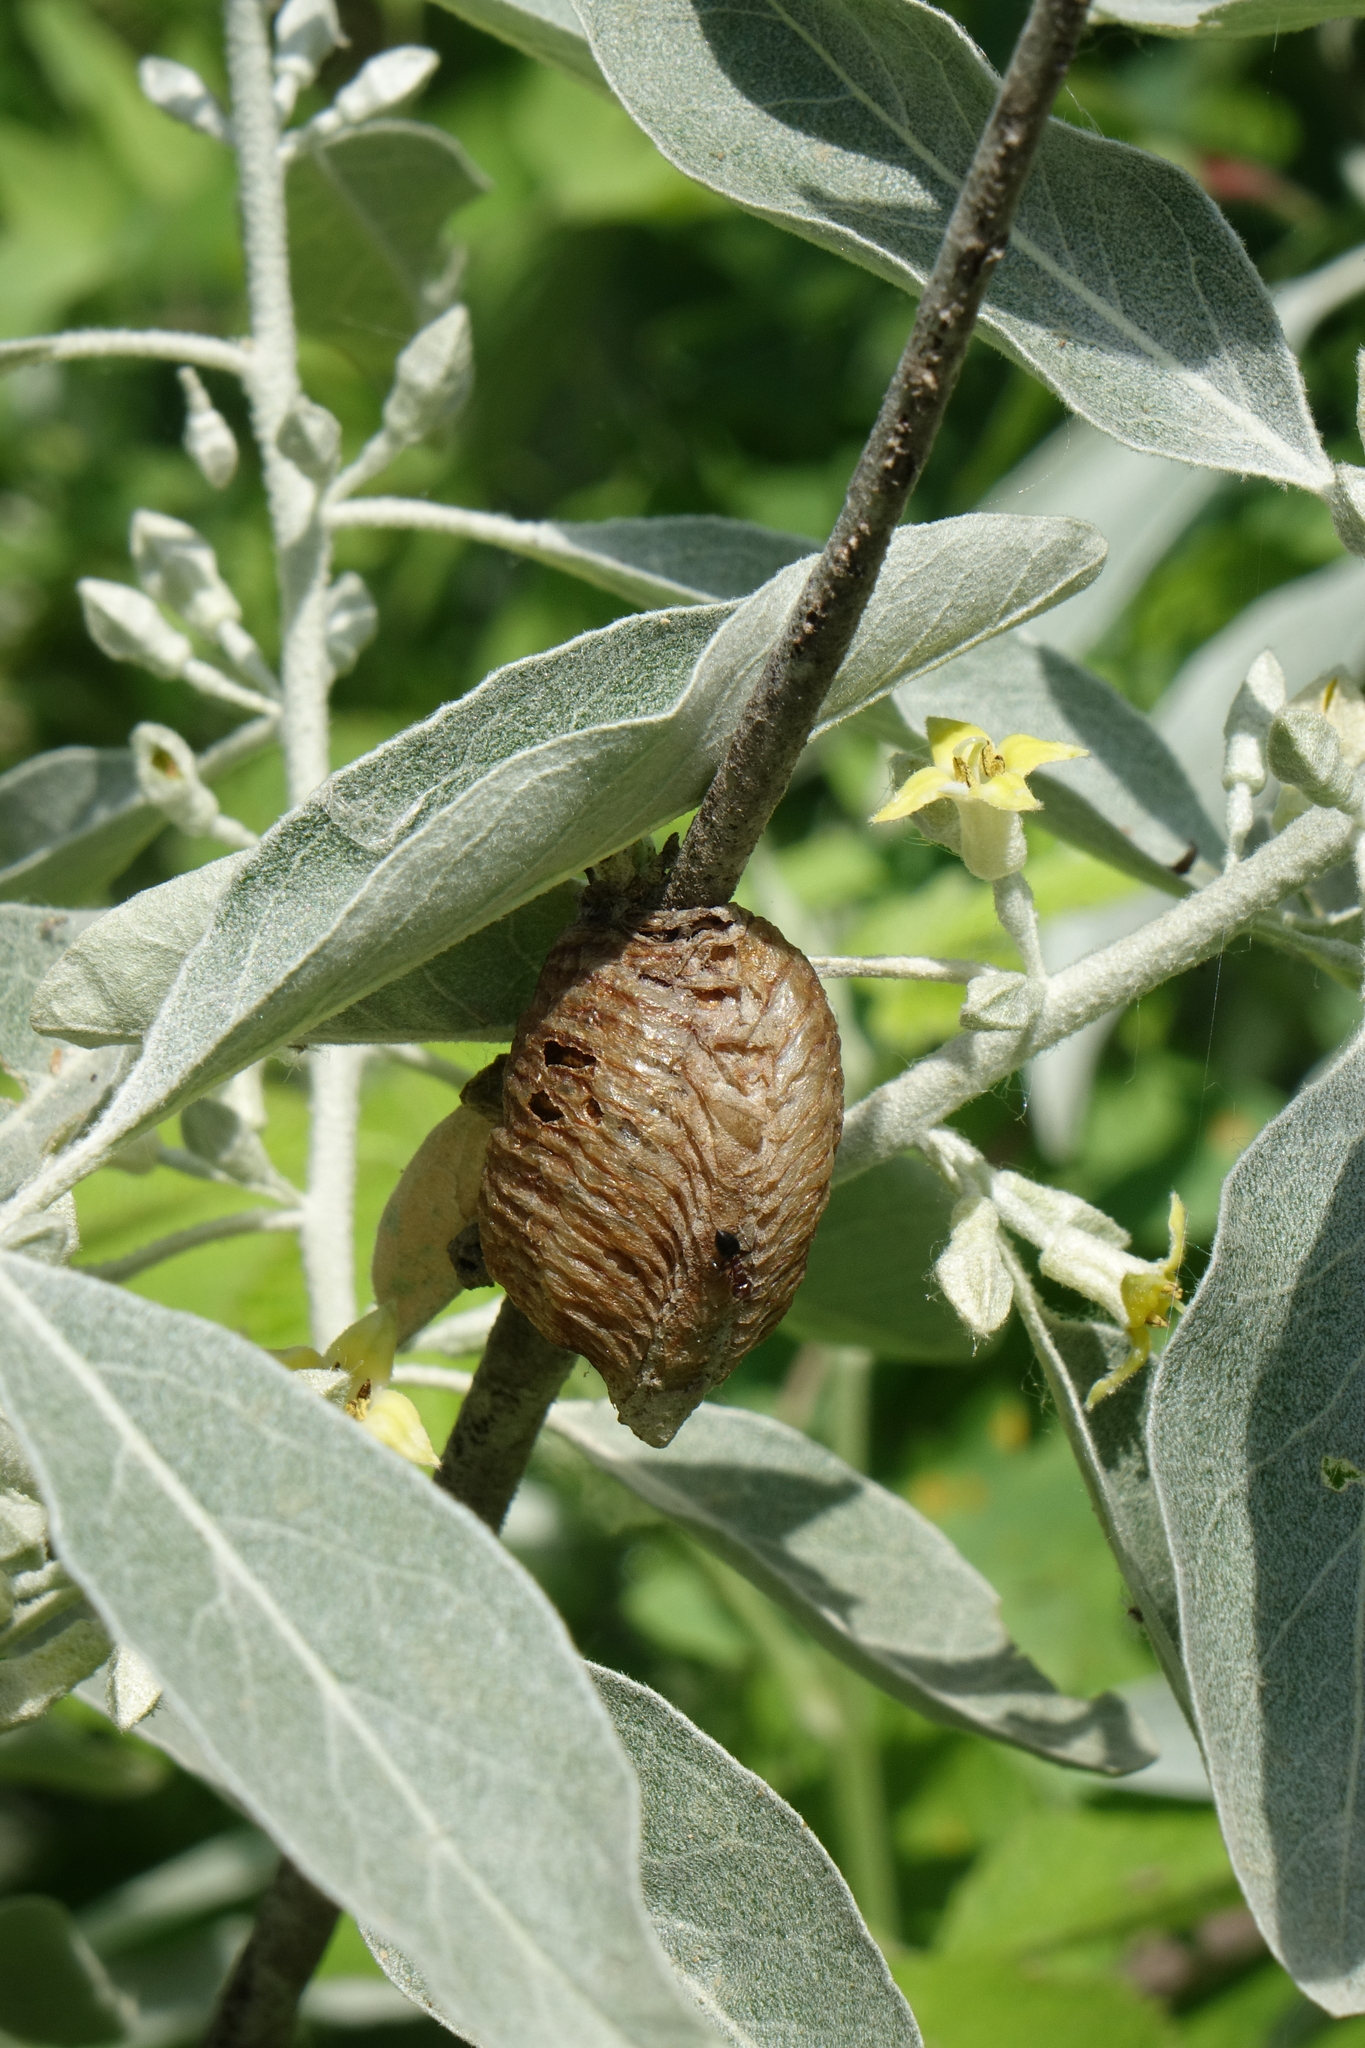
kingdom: Plantae
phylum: Tracheophyta
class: Magnoliopsida
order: Rosales
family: Elaeagnaceae
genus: Elaeagnus
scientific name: Elaeagnus angustifolia
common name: Russian olive
